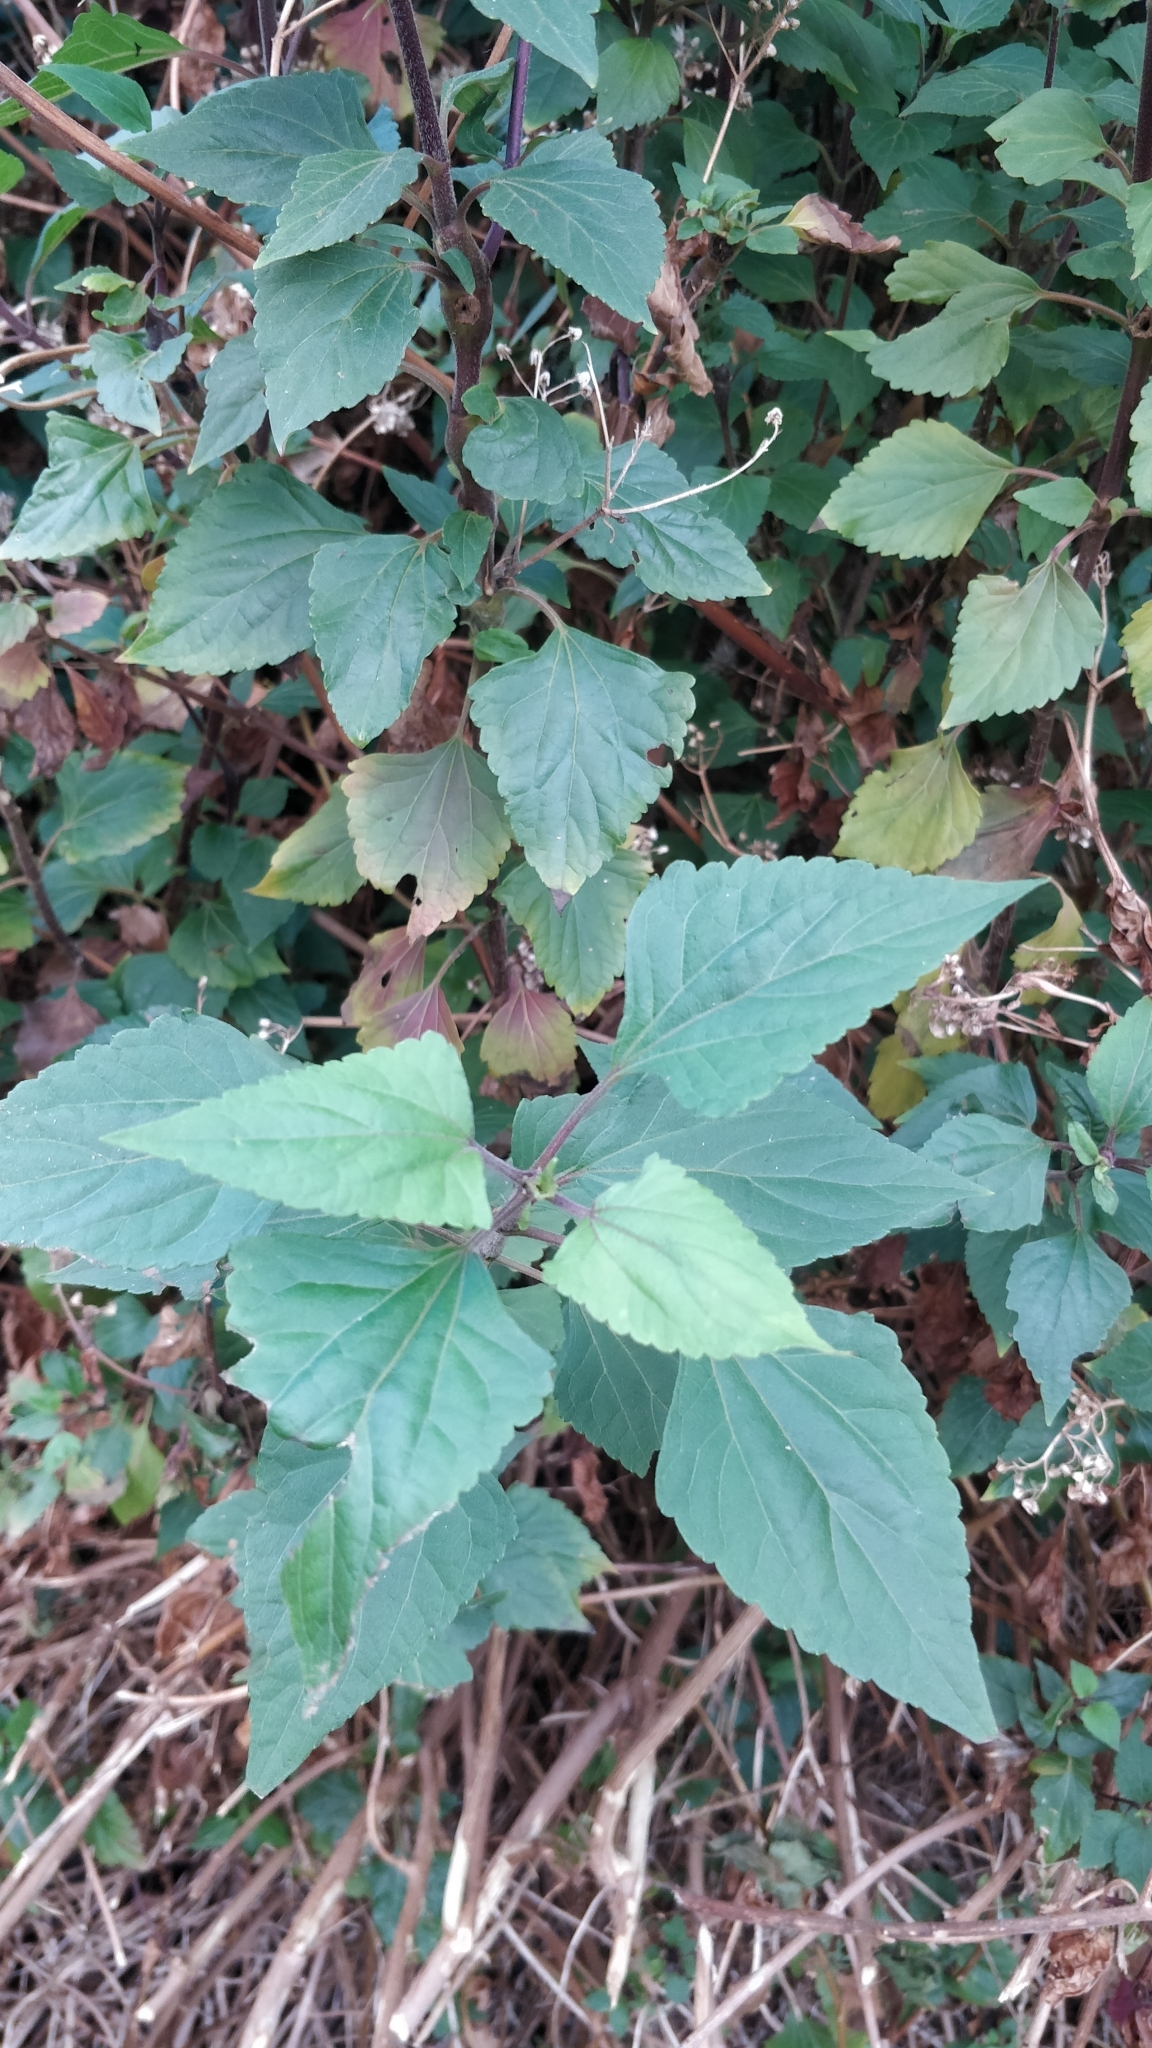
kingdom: Plantae
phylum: Tracheophyta
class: Magnoliopsida
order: Asterales
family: Asteraceae
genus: Ageratina
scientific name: Ageratina adenophora
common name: Sticky snakeroot
